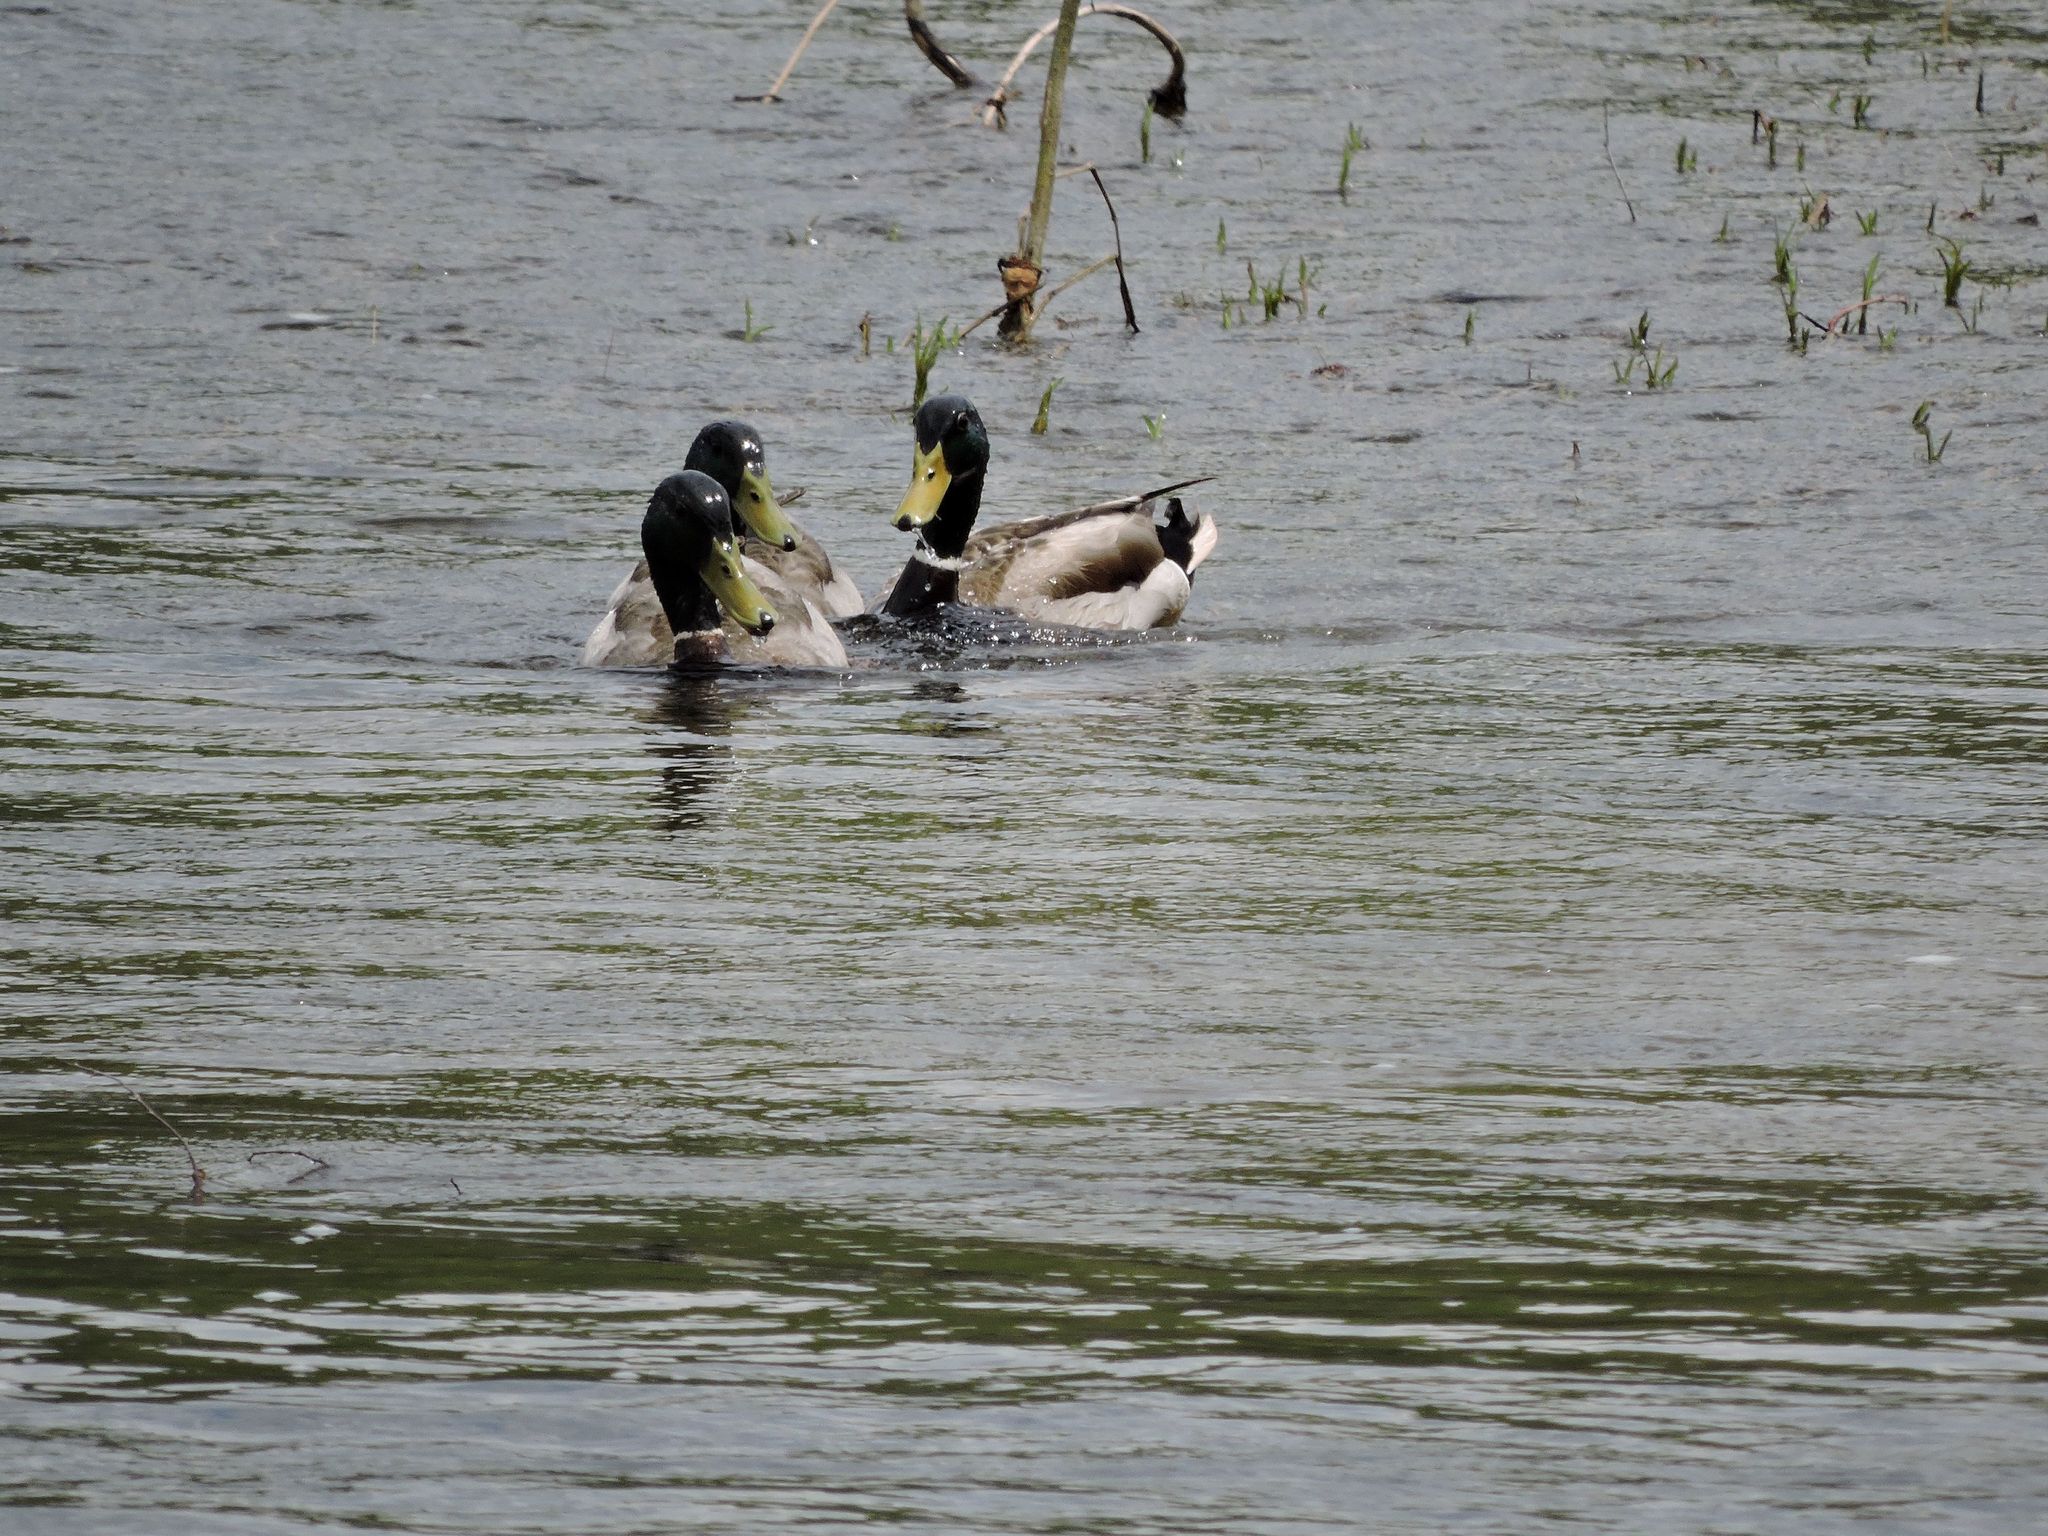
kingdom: Animalia
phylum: Chordata
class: Aves
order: Anseriformes
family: Anatidae
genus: Anas
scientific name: Anas platyrhynchos
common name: Mallard
